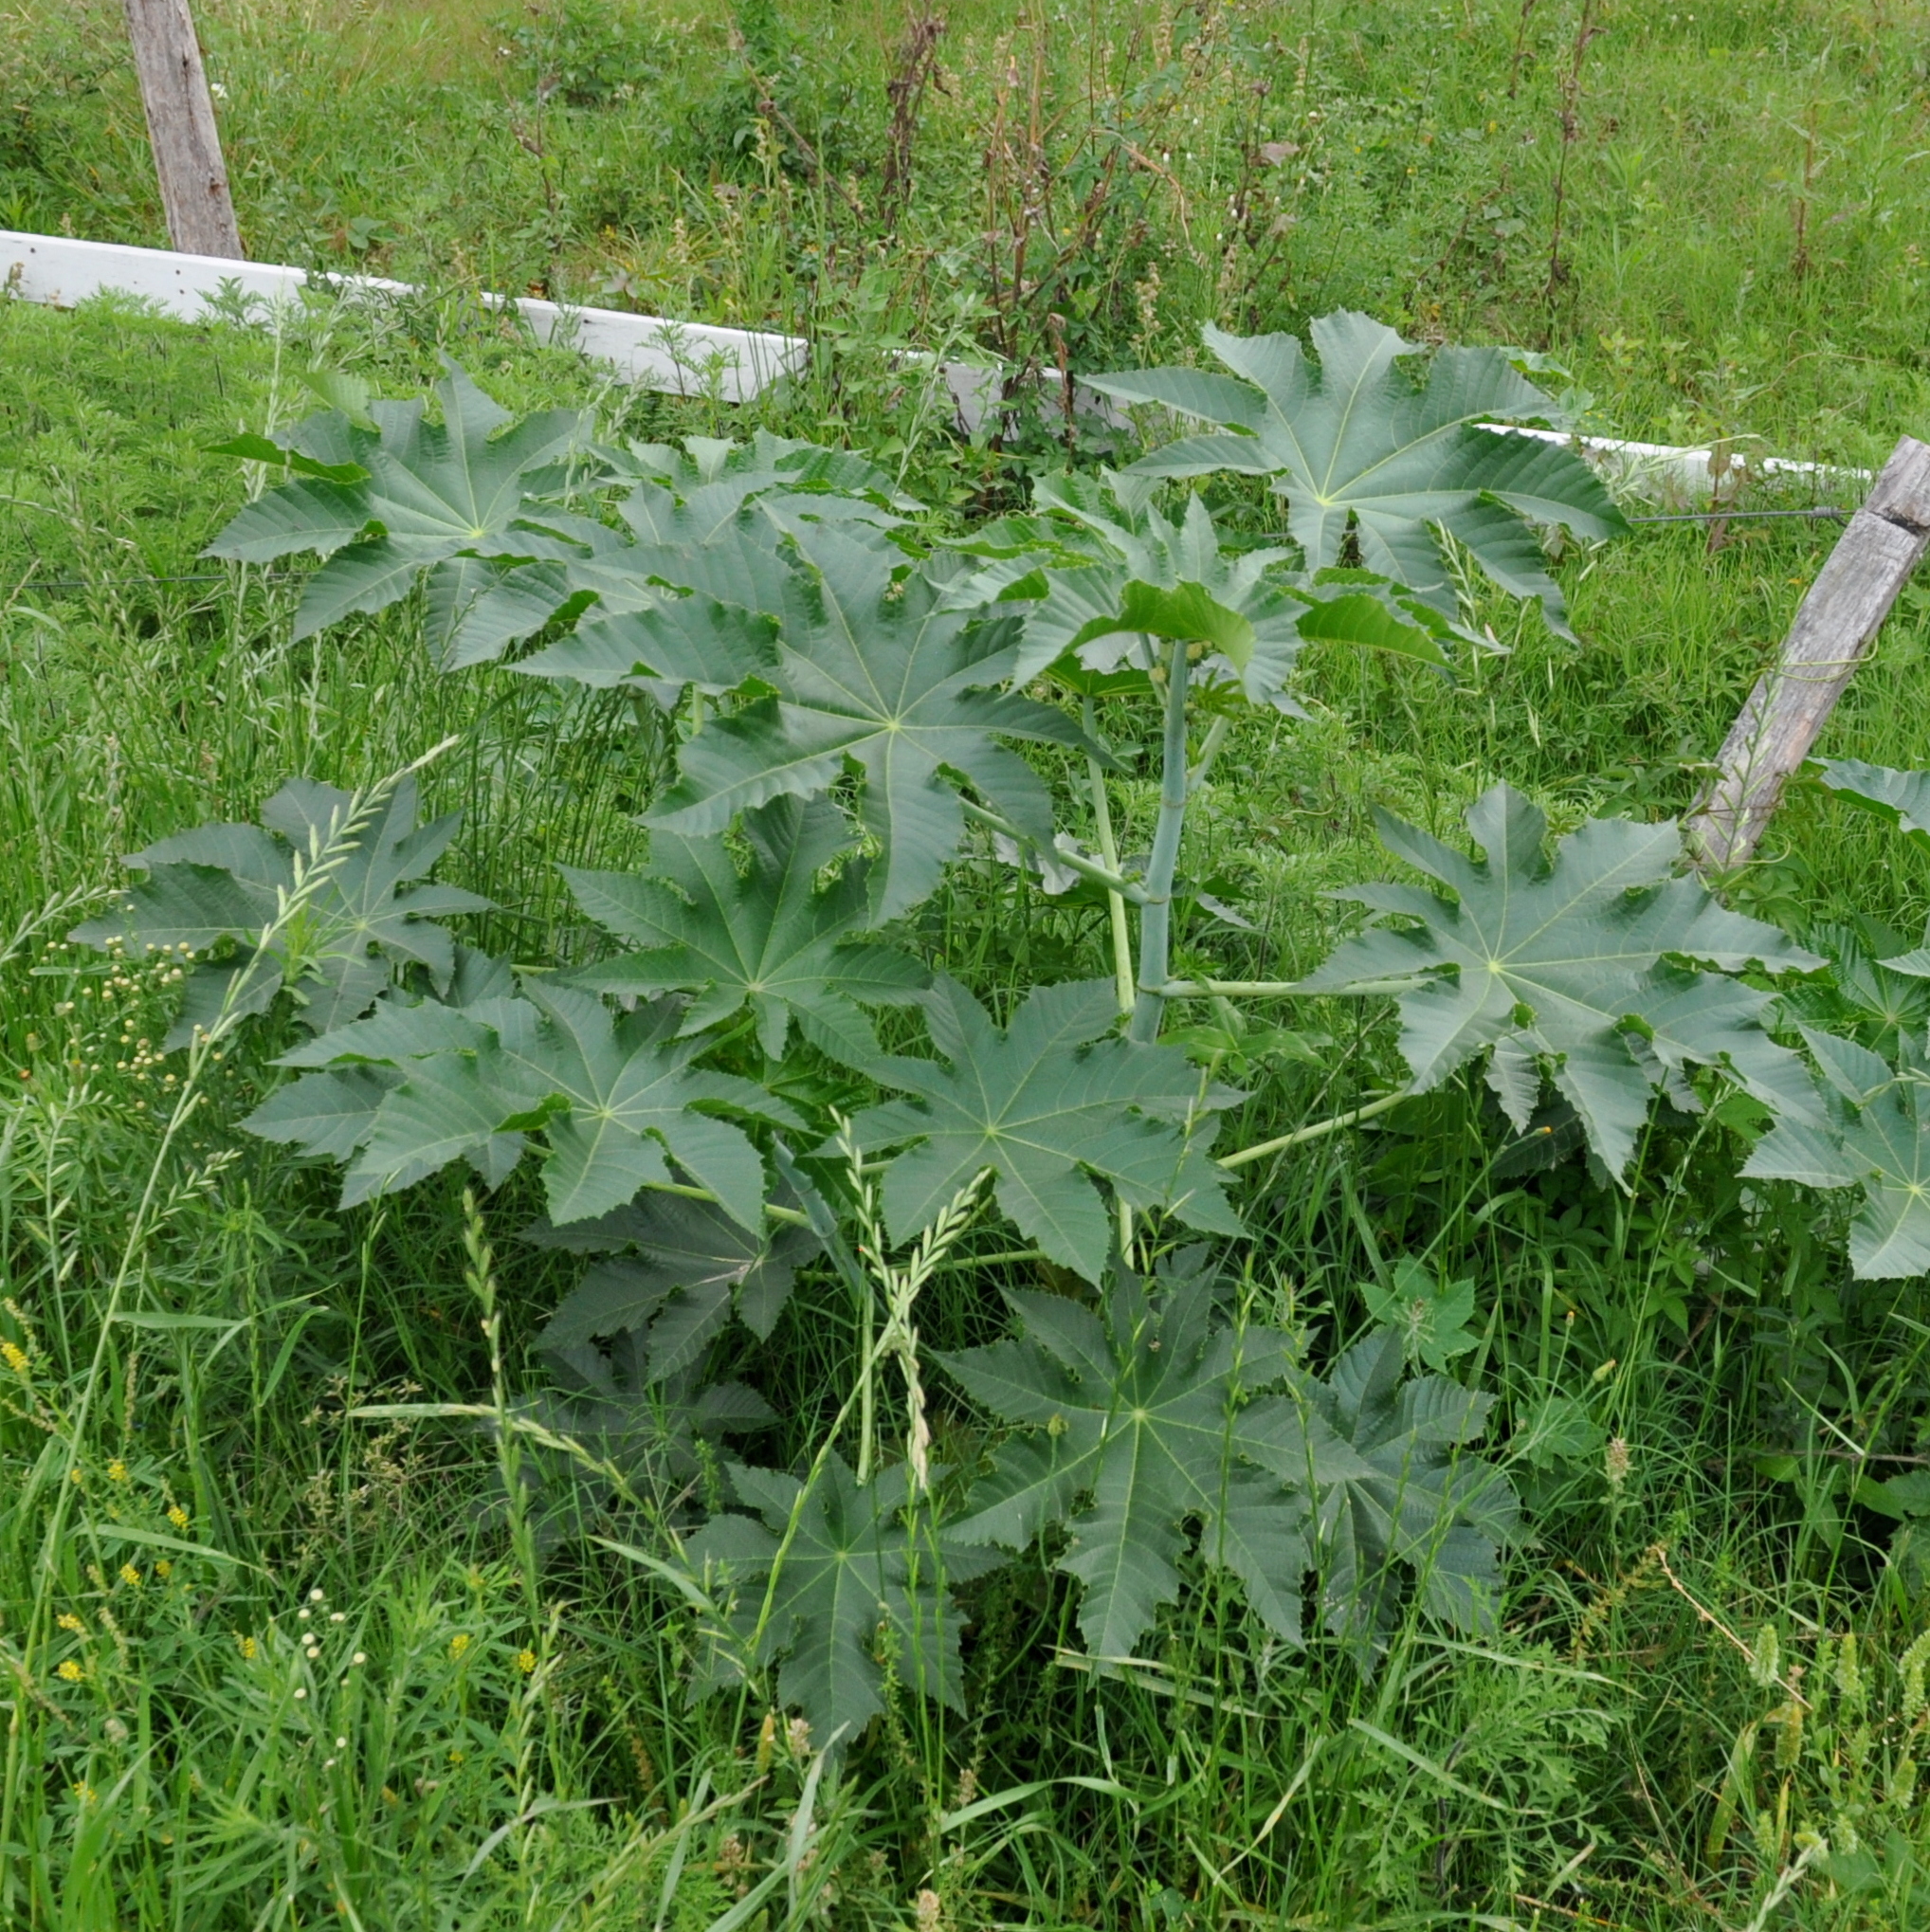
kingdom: Plantae
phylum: Tracheophyta
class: Magnoliopsida
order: Malpighiales
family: Euphorbiaceae
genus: Ricinus
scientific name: Ricinus communis
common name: Castor-oil-plant
